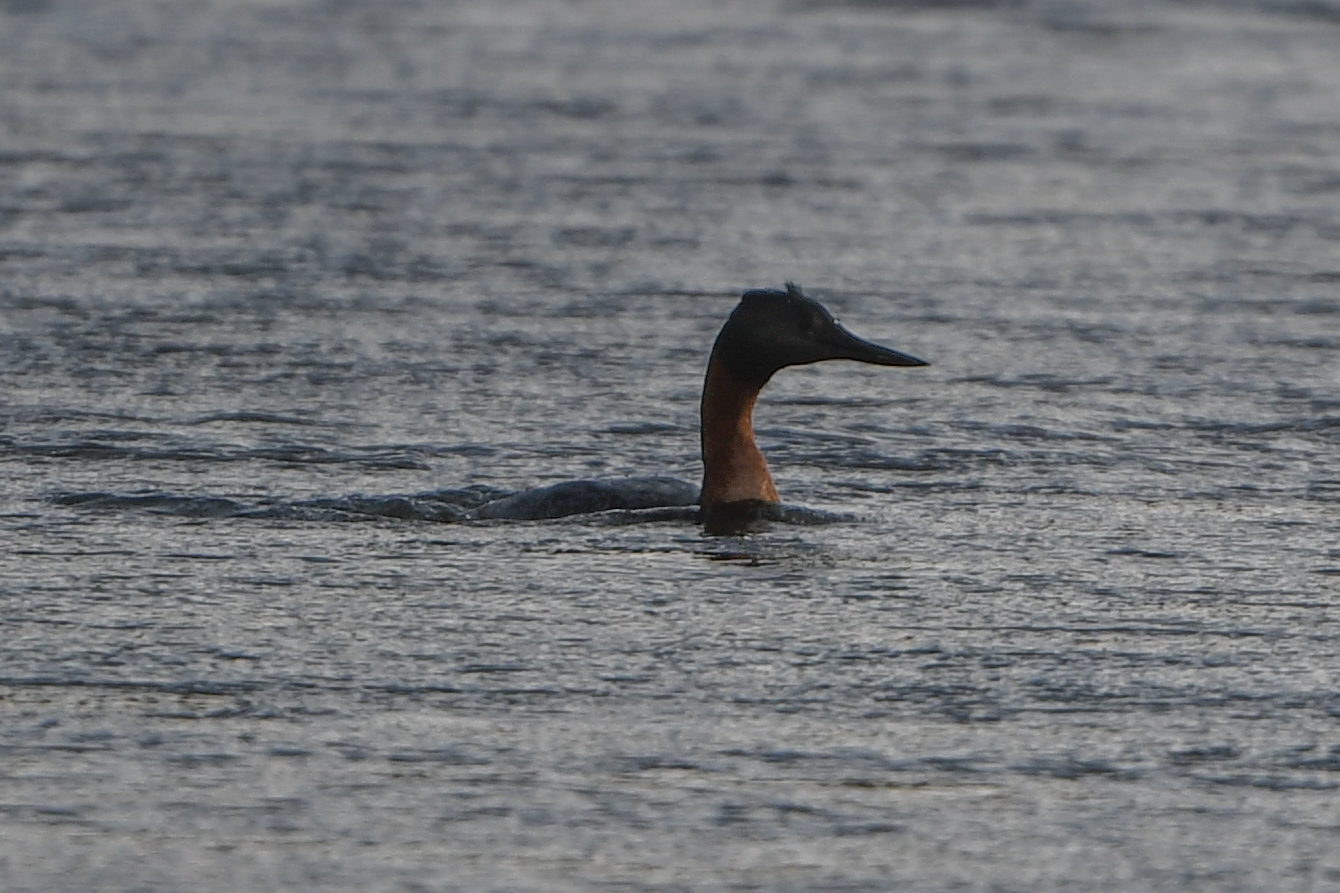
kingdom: Animalia
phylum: Chordata
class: Aves
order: Podicipediformes
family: Podicipedidae
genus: Podiceps
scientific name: Podiceps major
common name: Great grebe
